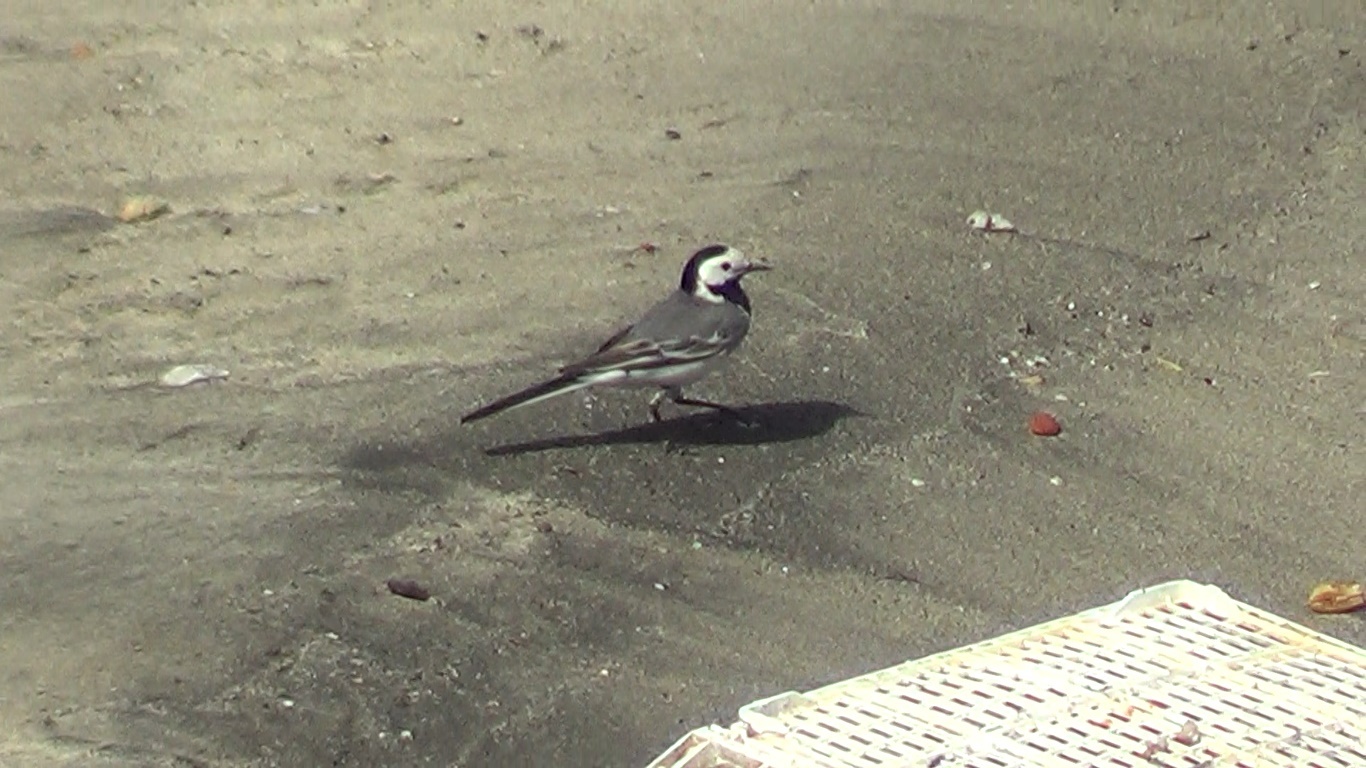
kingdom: Animalia
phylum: Chordata
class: Aves
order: Passeriformes
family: Motacillidae
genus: Motacilla
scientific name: Motacilla alba
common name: White wagtail
